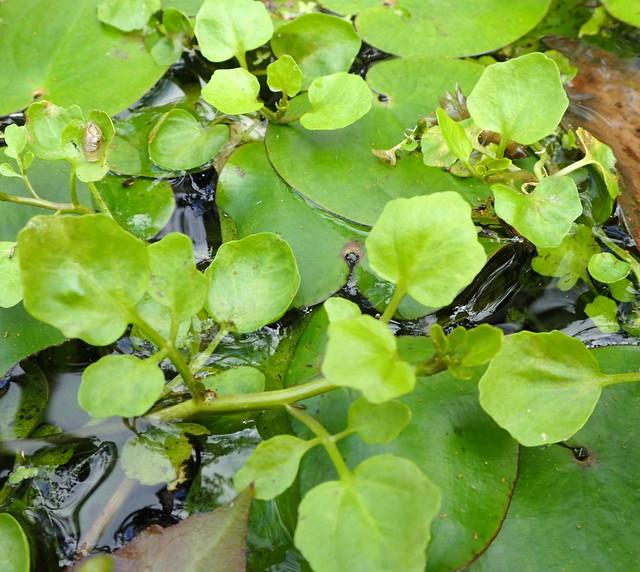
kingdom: Plantae
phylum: Tracheophyta
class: Magnoliopsida
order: Brassicales
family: Brassicaceae
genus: Nasturtium
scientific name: Nasturtium officinale
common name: Watercress
